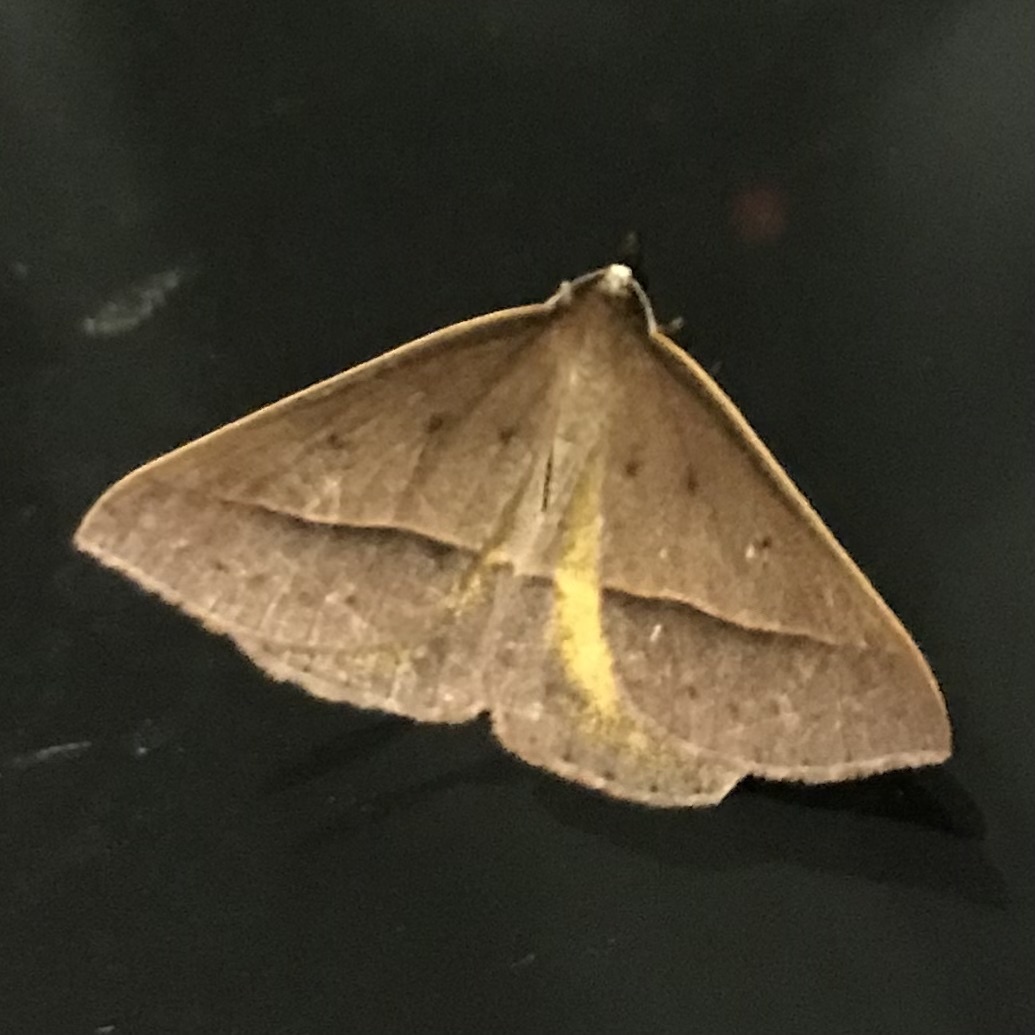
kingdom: Animalia
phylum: Arthropoda
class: Insecta
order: Lepidoptera
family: Geometridae
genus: Epidesmia
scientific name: Epidesmia chilonaria
